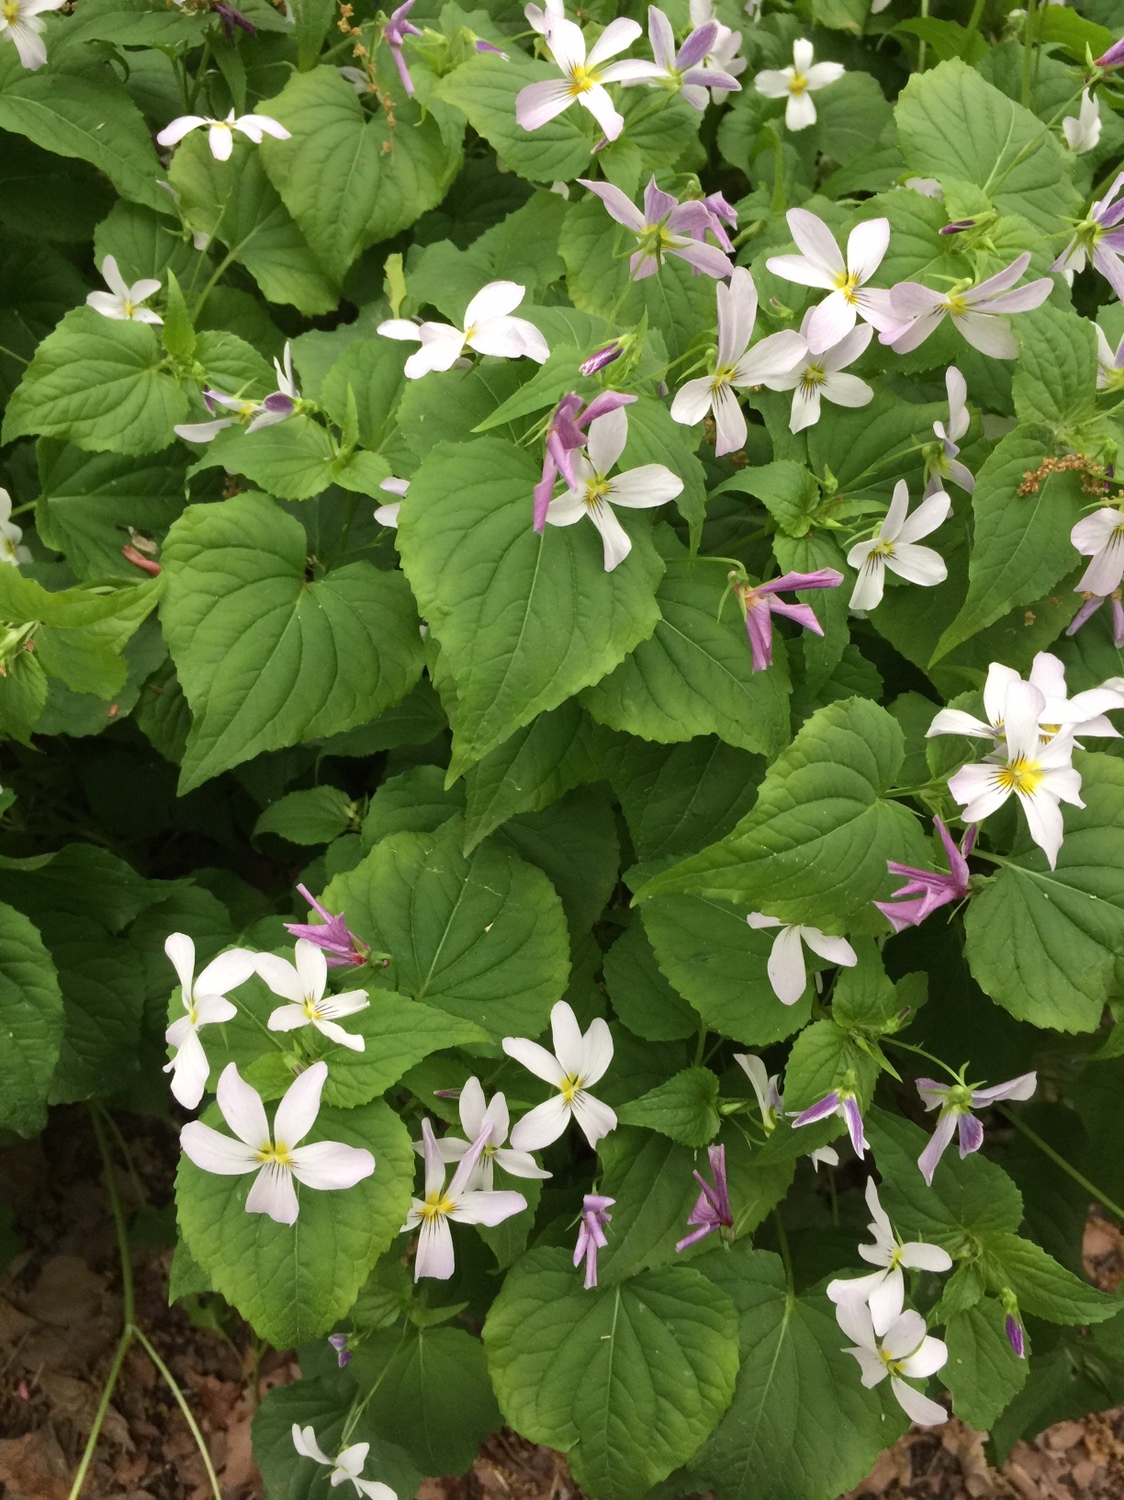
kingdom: Plantae
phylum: Tracheophyta
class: Magnoliopsida
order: Malpighiales
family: Violaceae
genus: Viola
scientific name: Viola canadensis
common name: Canada violet
